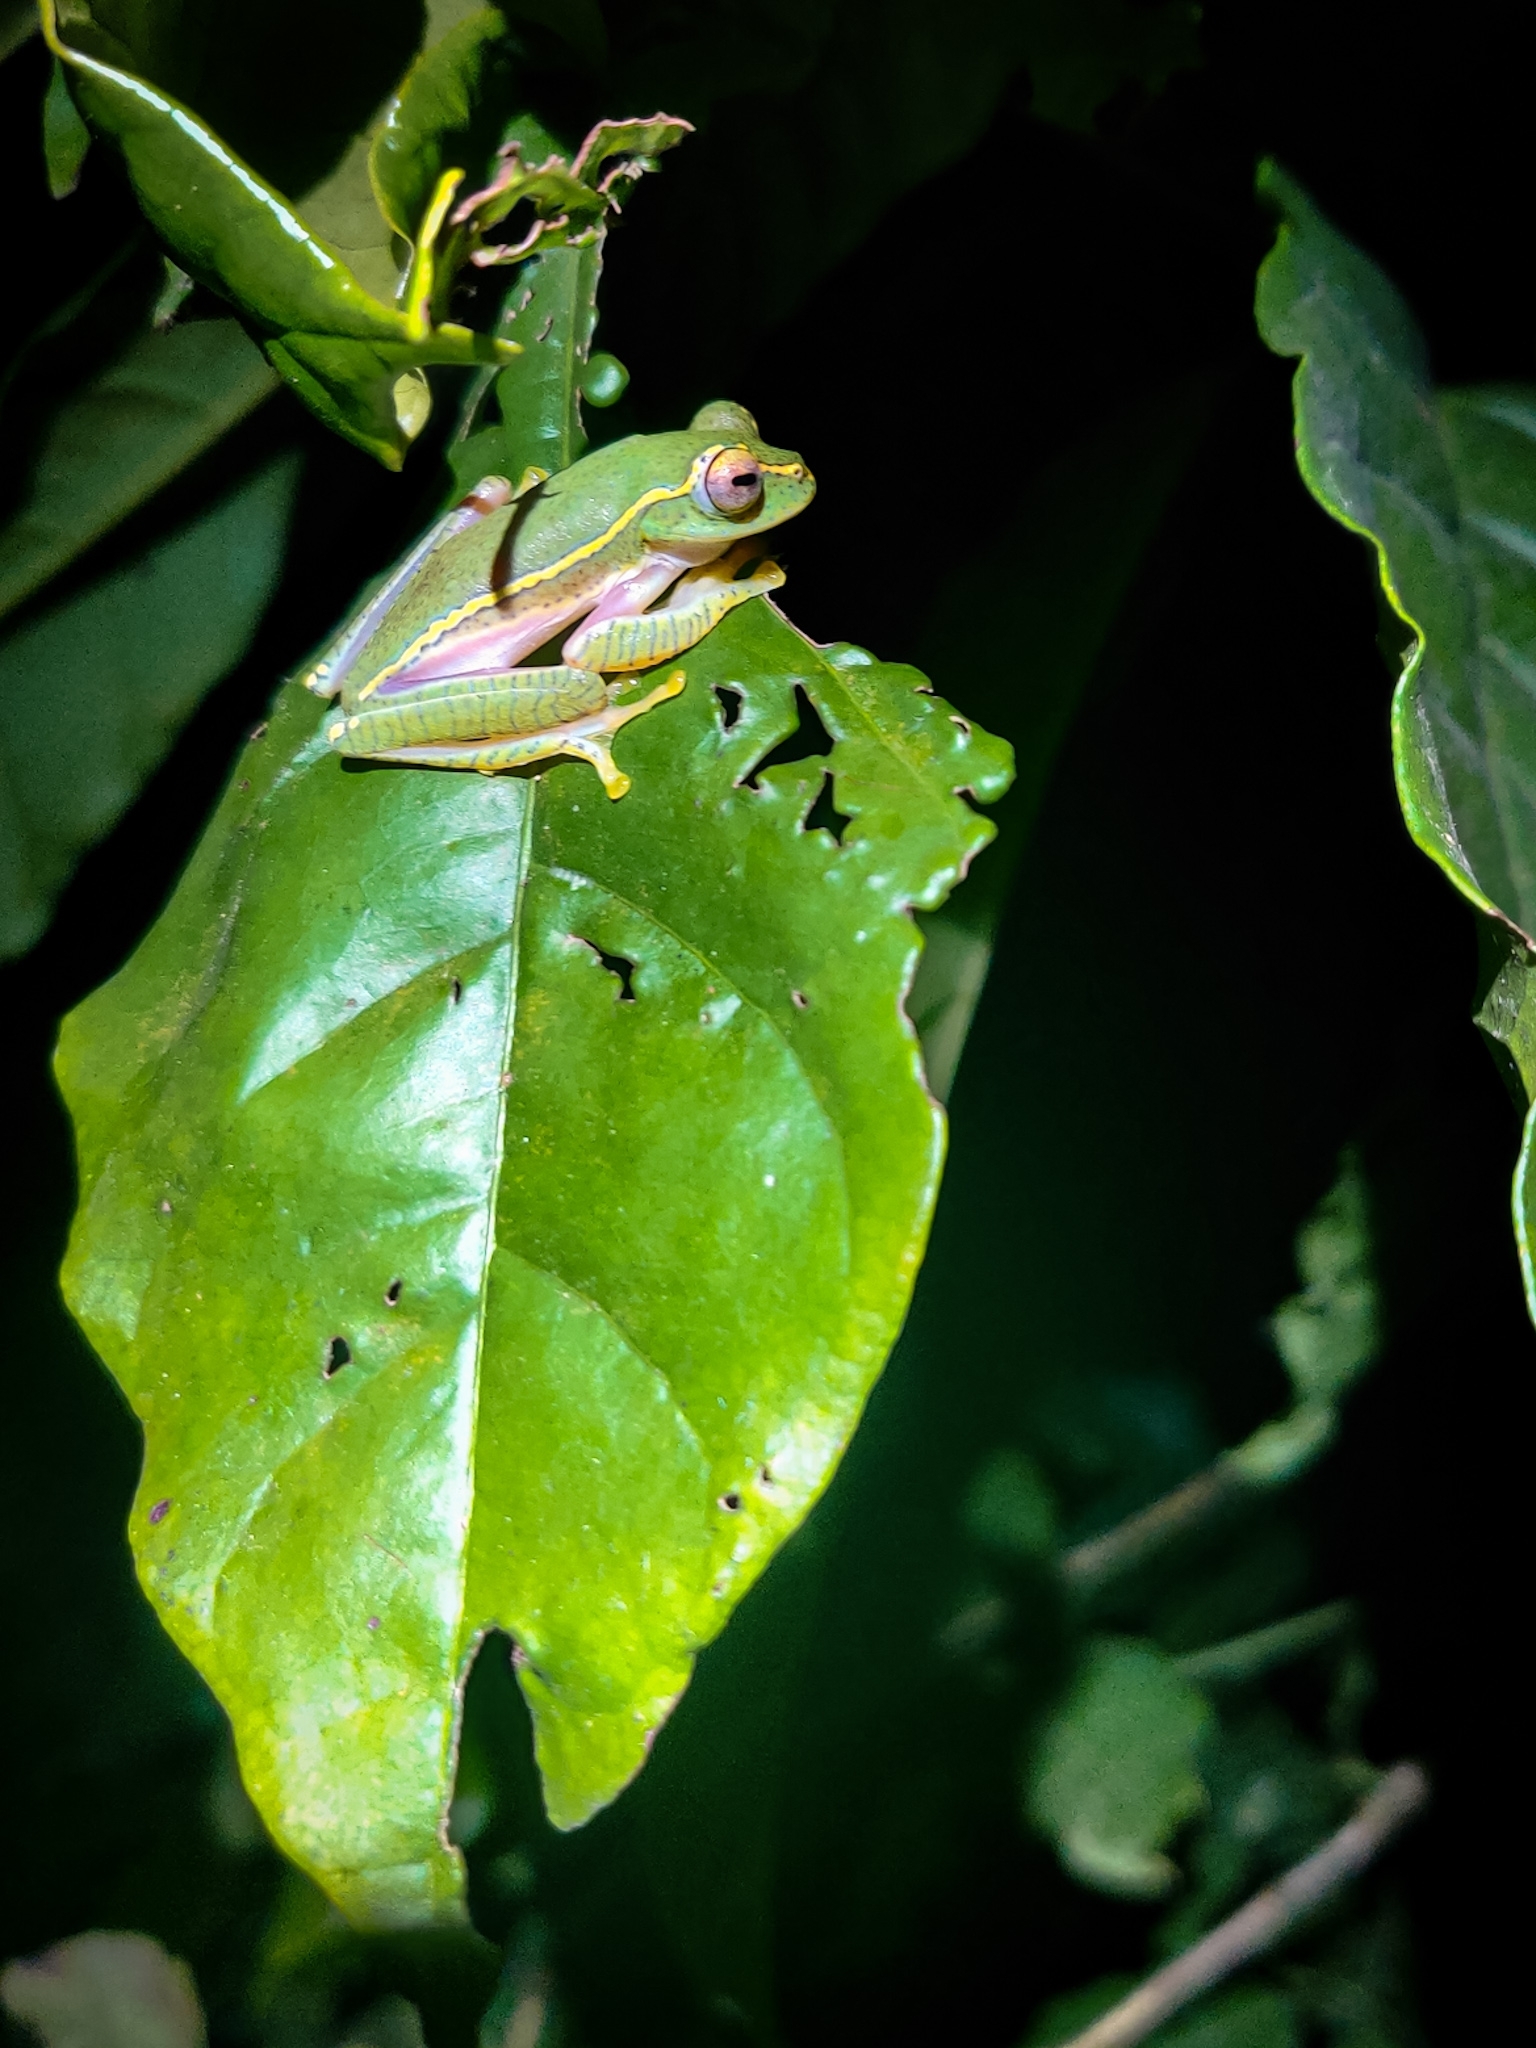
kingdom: Animalia
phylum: Chordata
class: Amphibia
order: Anura
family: Rhacophoridae
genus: Rhacophorus
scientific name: Rhacophorus lateralis
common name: Boulenger's tree frog
